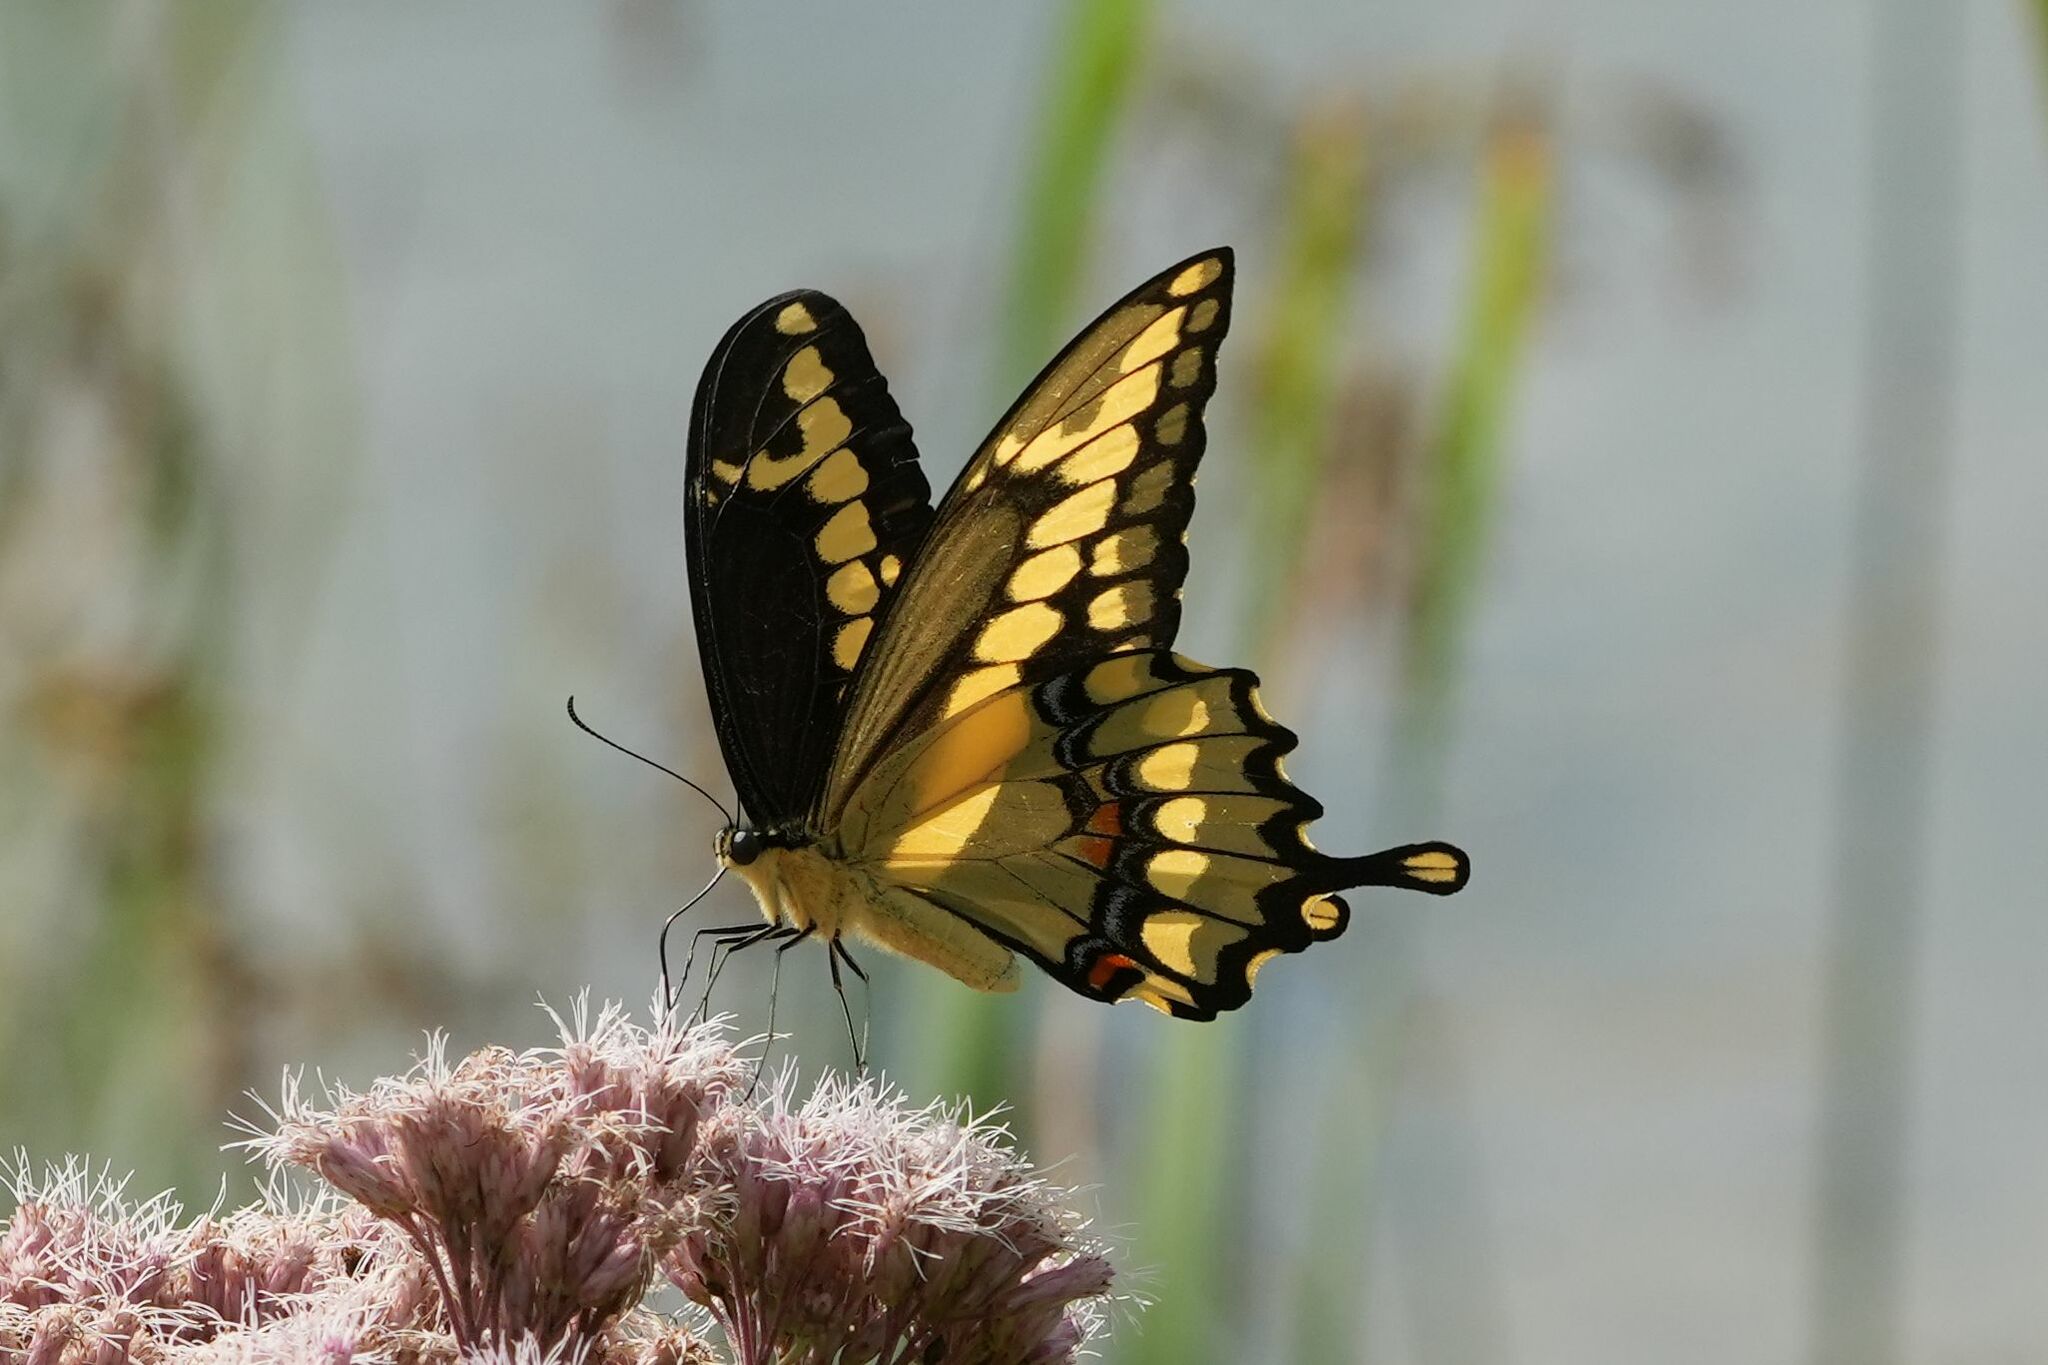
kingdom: Animalia
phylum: Arthropoda
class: Insecta
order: Lepidoptera
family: Papilionidae
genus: Papilio
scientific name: Papilio cresphontes
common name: Giant swallowtail
